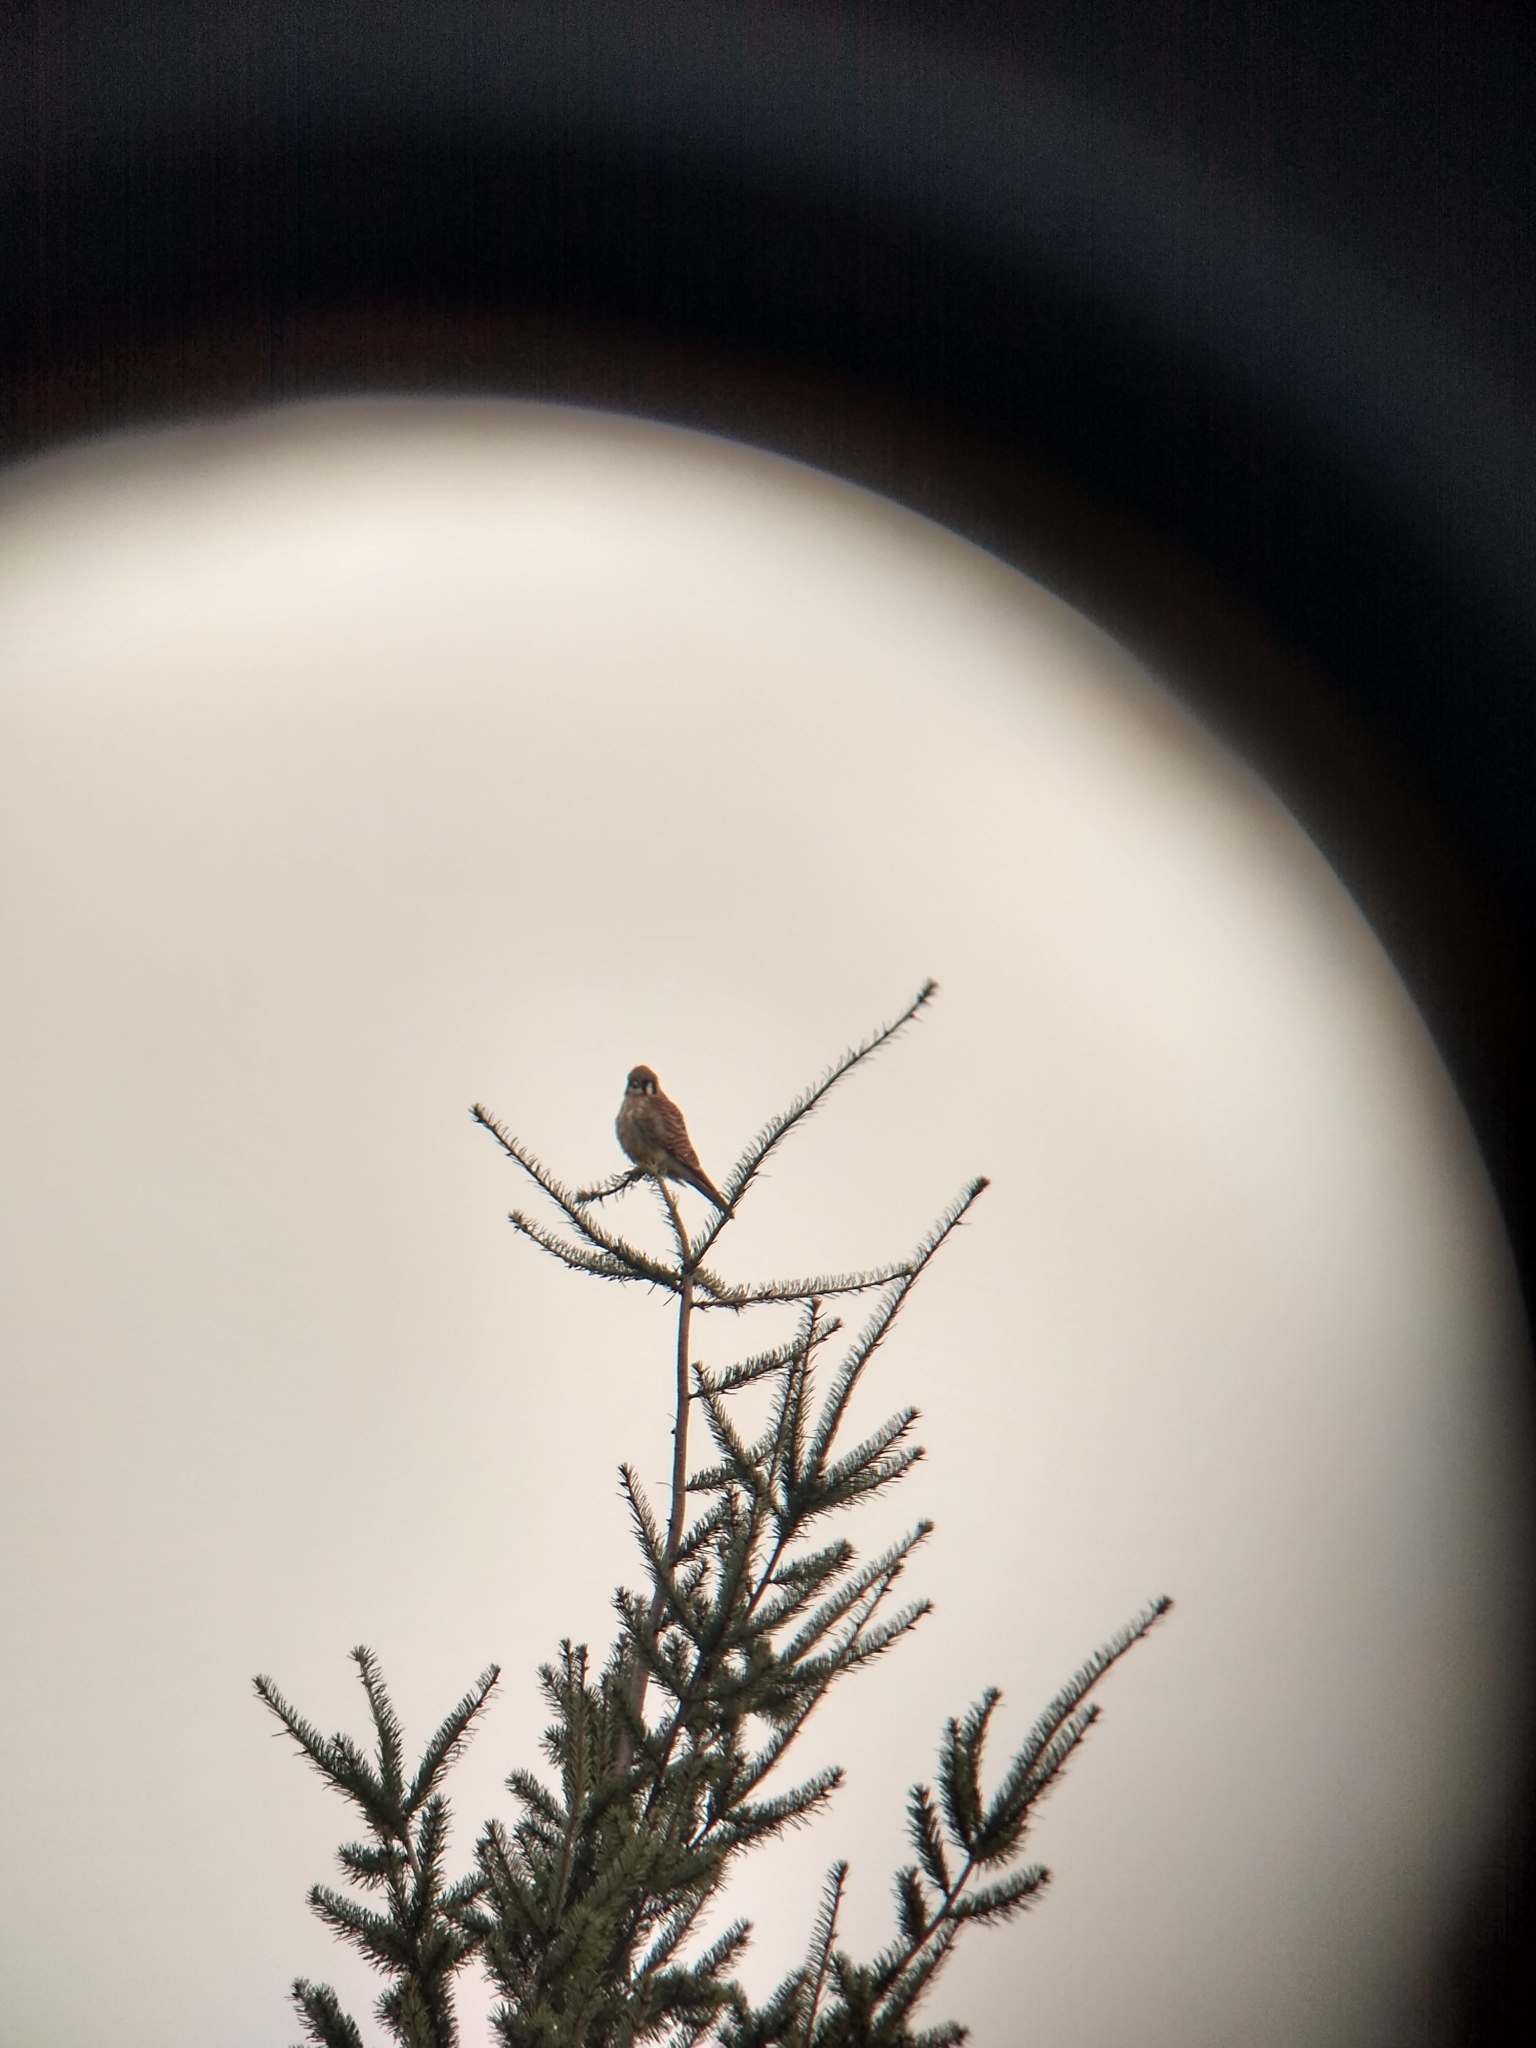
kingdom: Animalia
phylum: Chordata
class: Aves
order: Falconiformes
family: Falconidae
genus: Falco
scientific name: Falco sparverius
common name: American kestrel
